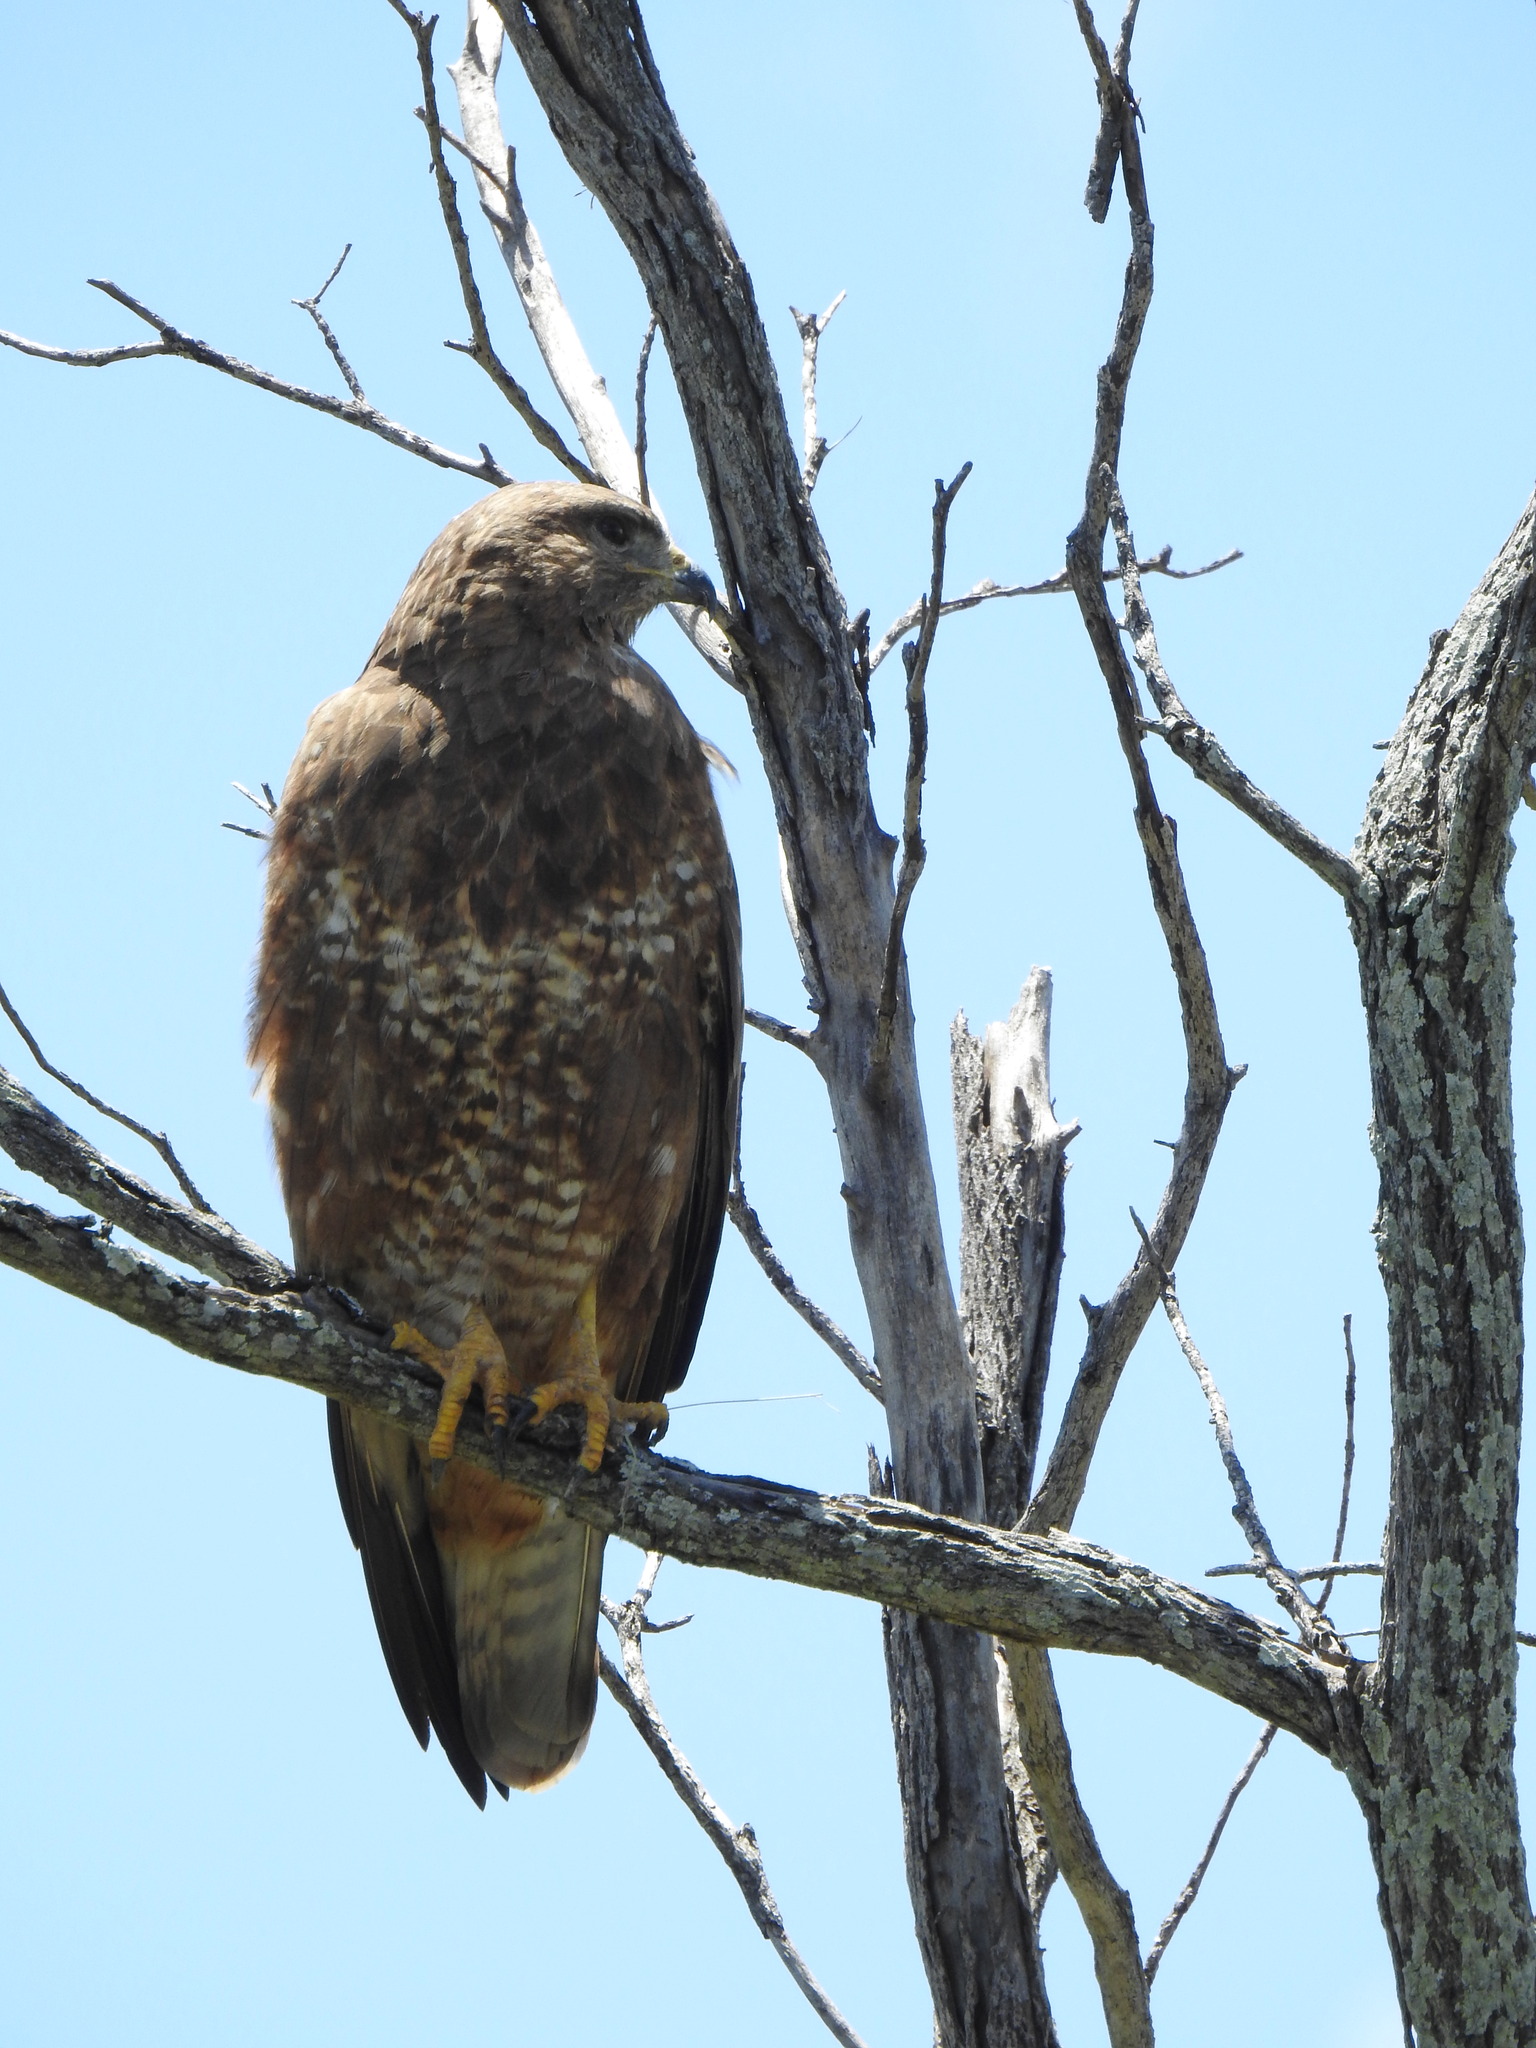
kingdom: Animalia
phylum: Chordata
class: Aves
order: Accipitriformes
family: Accipitridae
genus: Buteo
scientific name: Buteo buteo
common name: Common buzzard
